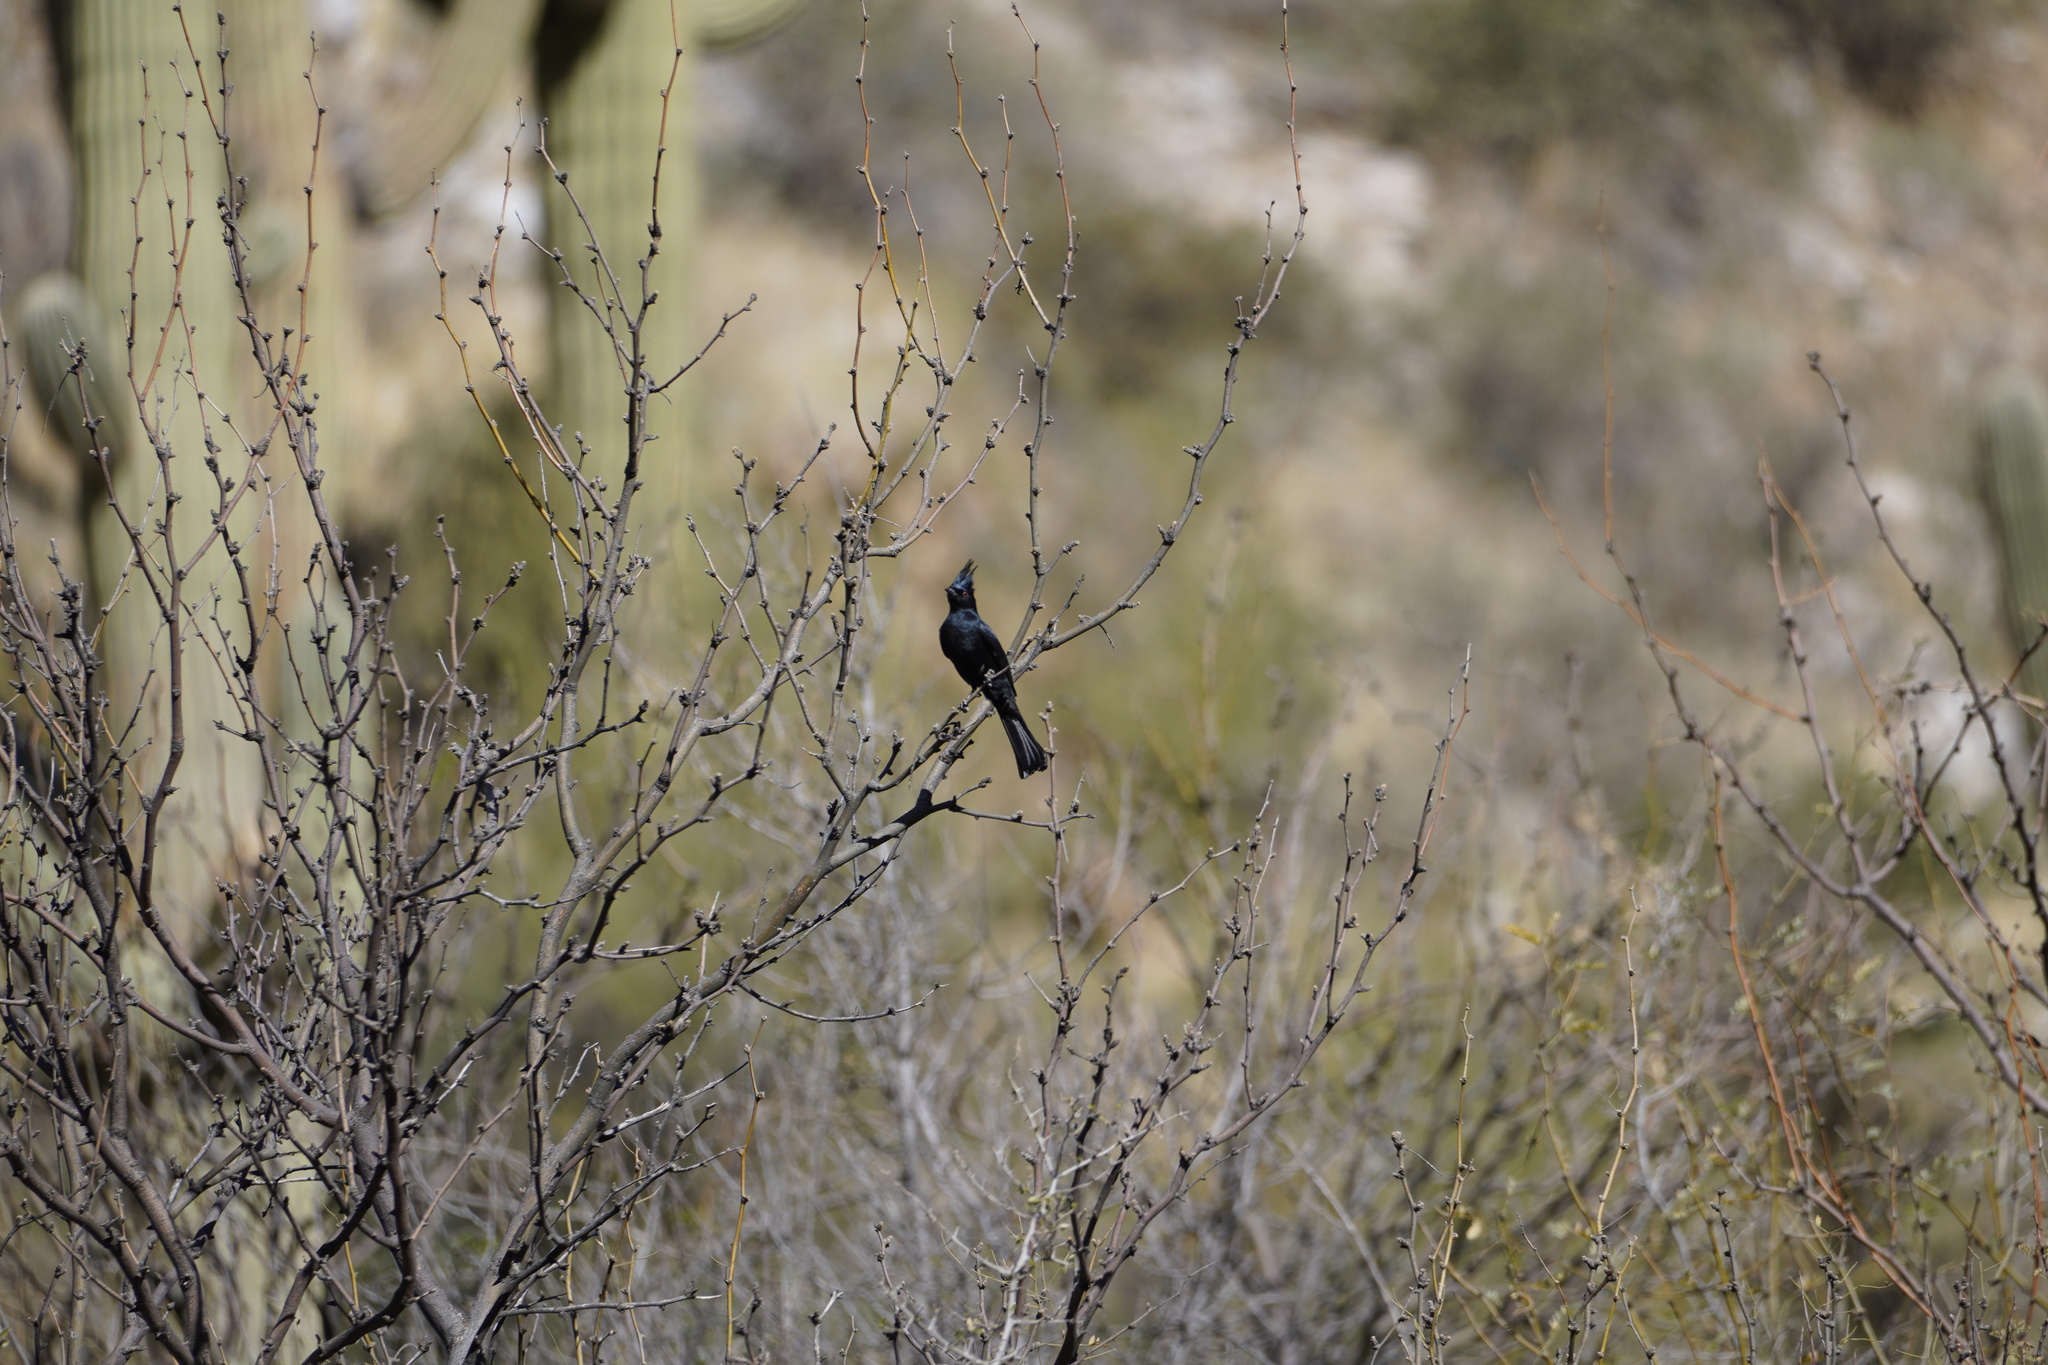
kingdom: Animalia
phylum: Chordata
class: Aves
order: Passeriformes
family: Ptilogonatidae
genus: Phainopepla
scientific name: Phainopepla nitens
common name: Phainopepla
